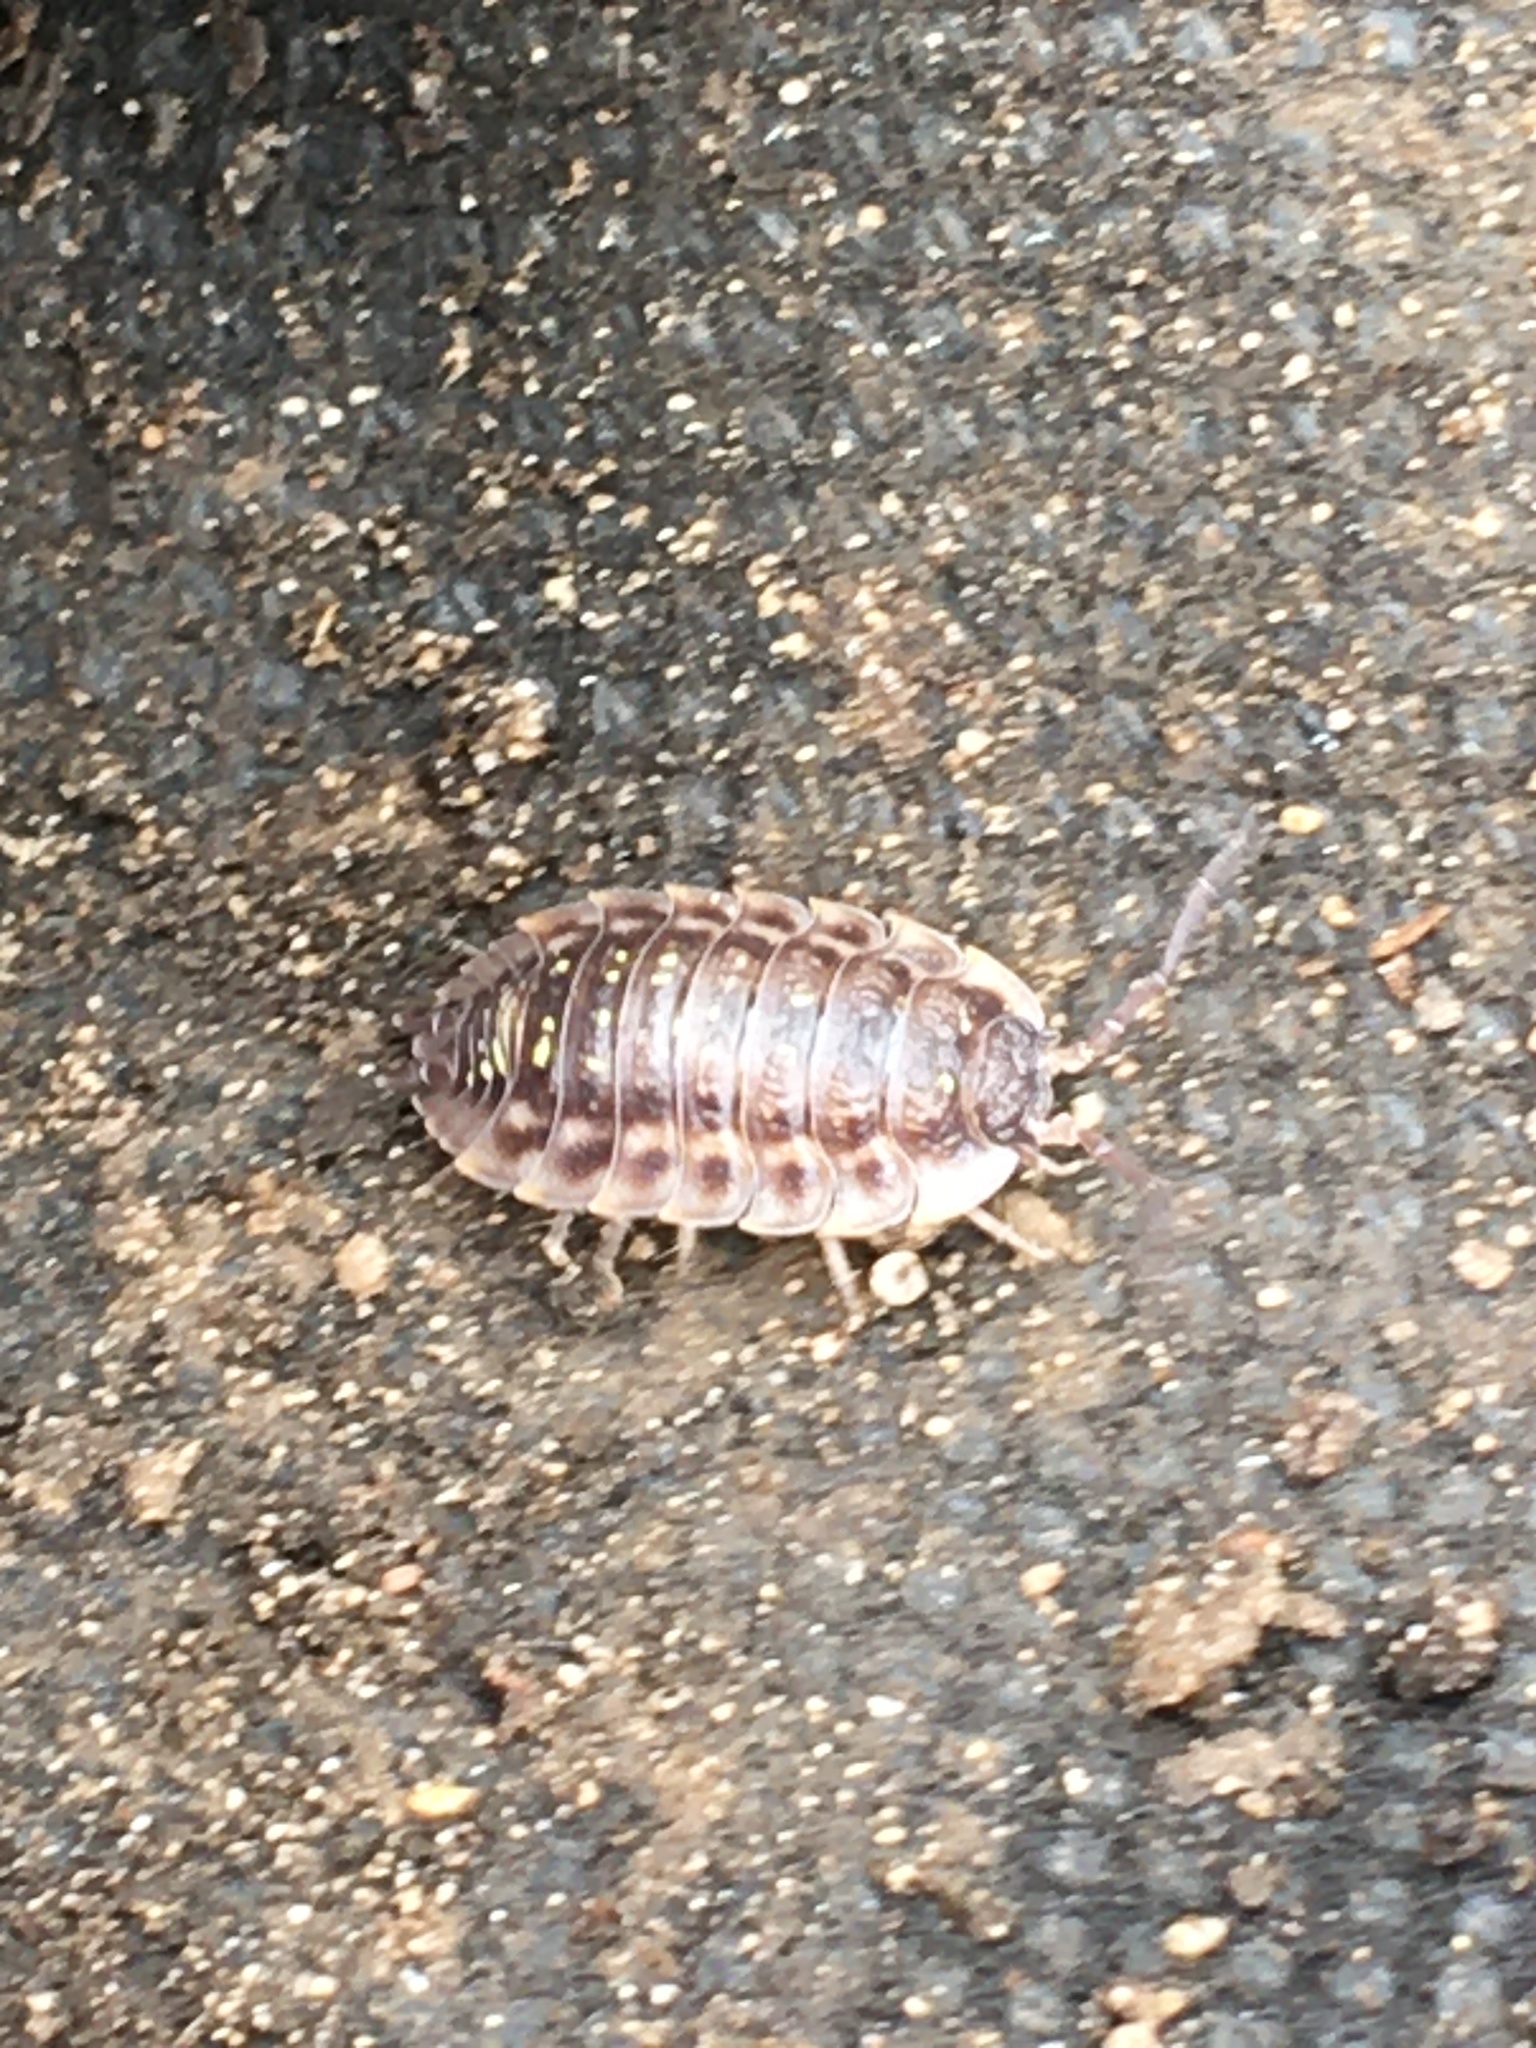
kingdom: Animalia
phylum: Arthropoda
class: Malacostraca
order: Isopoda
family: Oniscidae
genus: Oniscus
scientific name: Oniscus asellus
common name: Common shiny woodlouse
